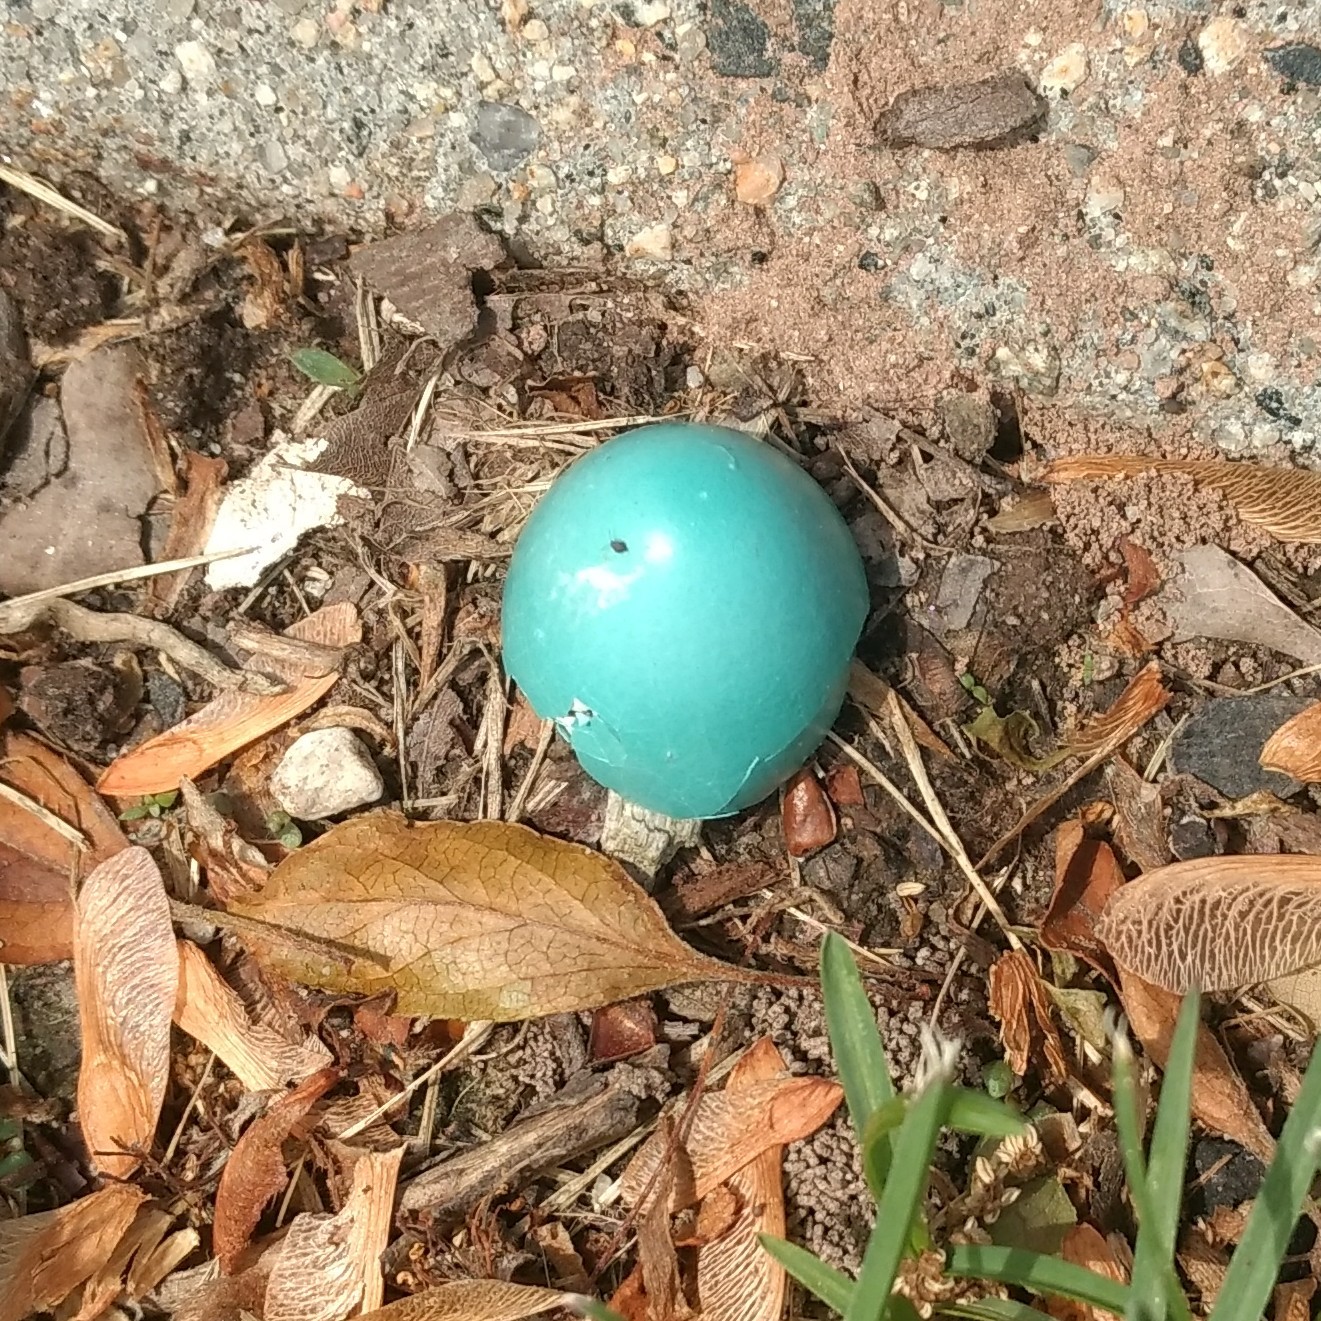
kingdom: Animalia
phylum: Chordata
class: Aves
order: Passeriformes
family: Turdidae
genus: Turdus
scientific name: Turdus migratorius
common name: American robin
